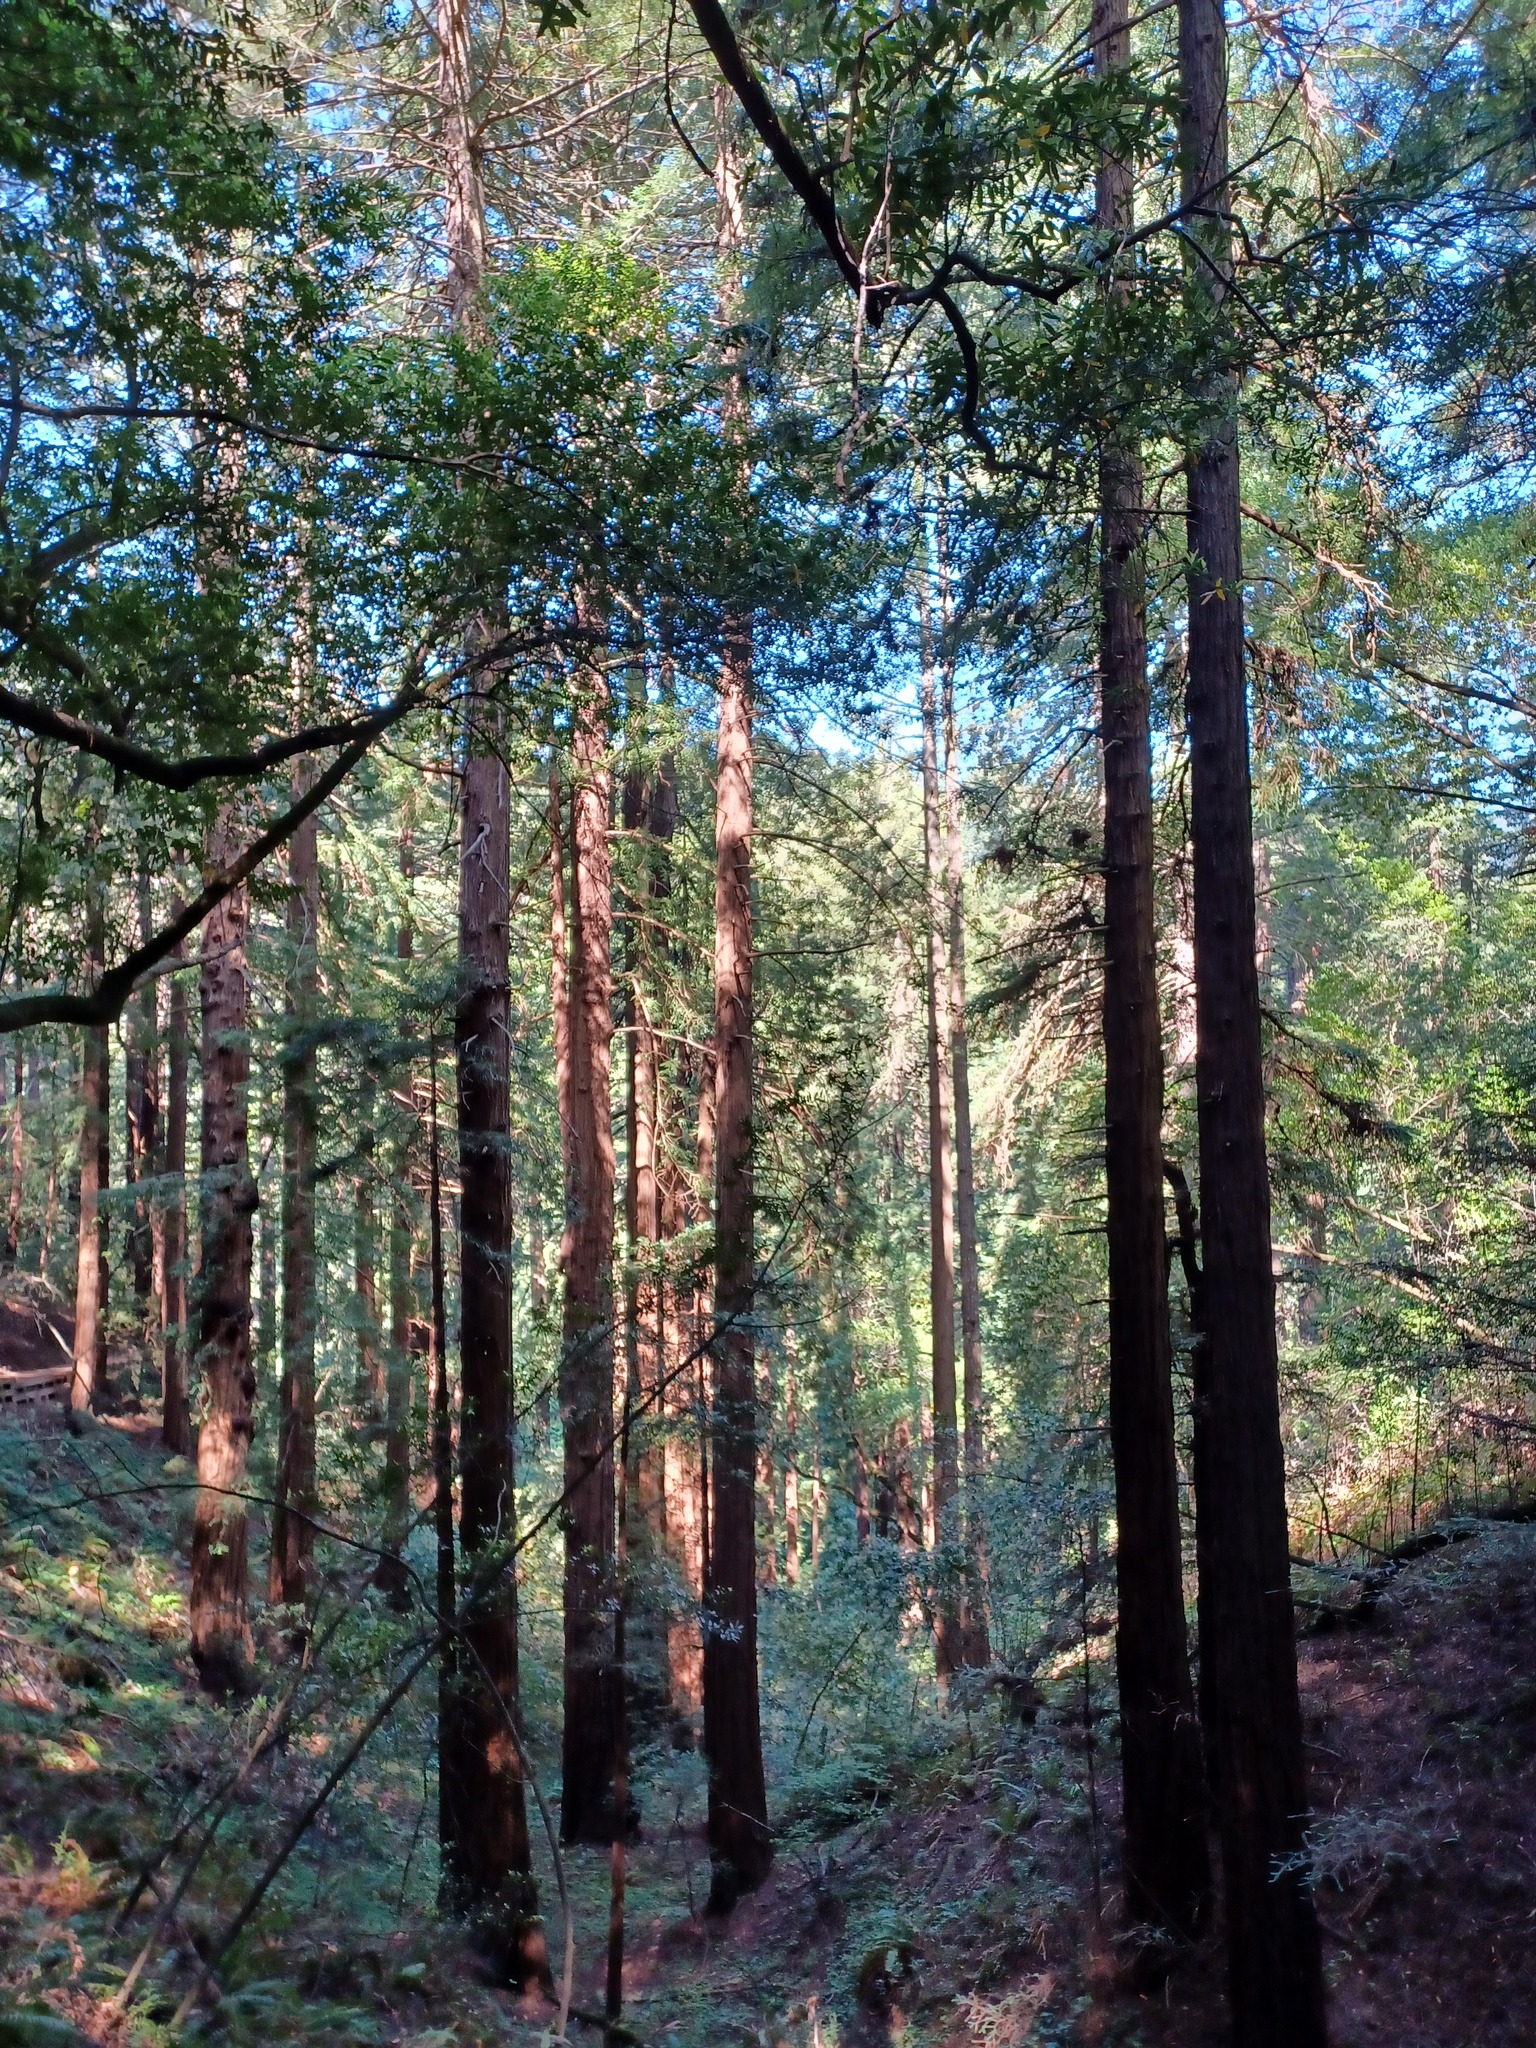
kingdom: Plantae
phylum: Tracheophyta
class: Pinopsida
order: Pinales
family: Cupressaceae
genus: Sequoia
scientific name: Sequoia sempervirens
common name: Coast redwood
